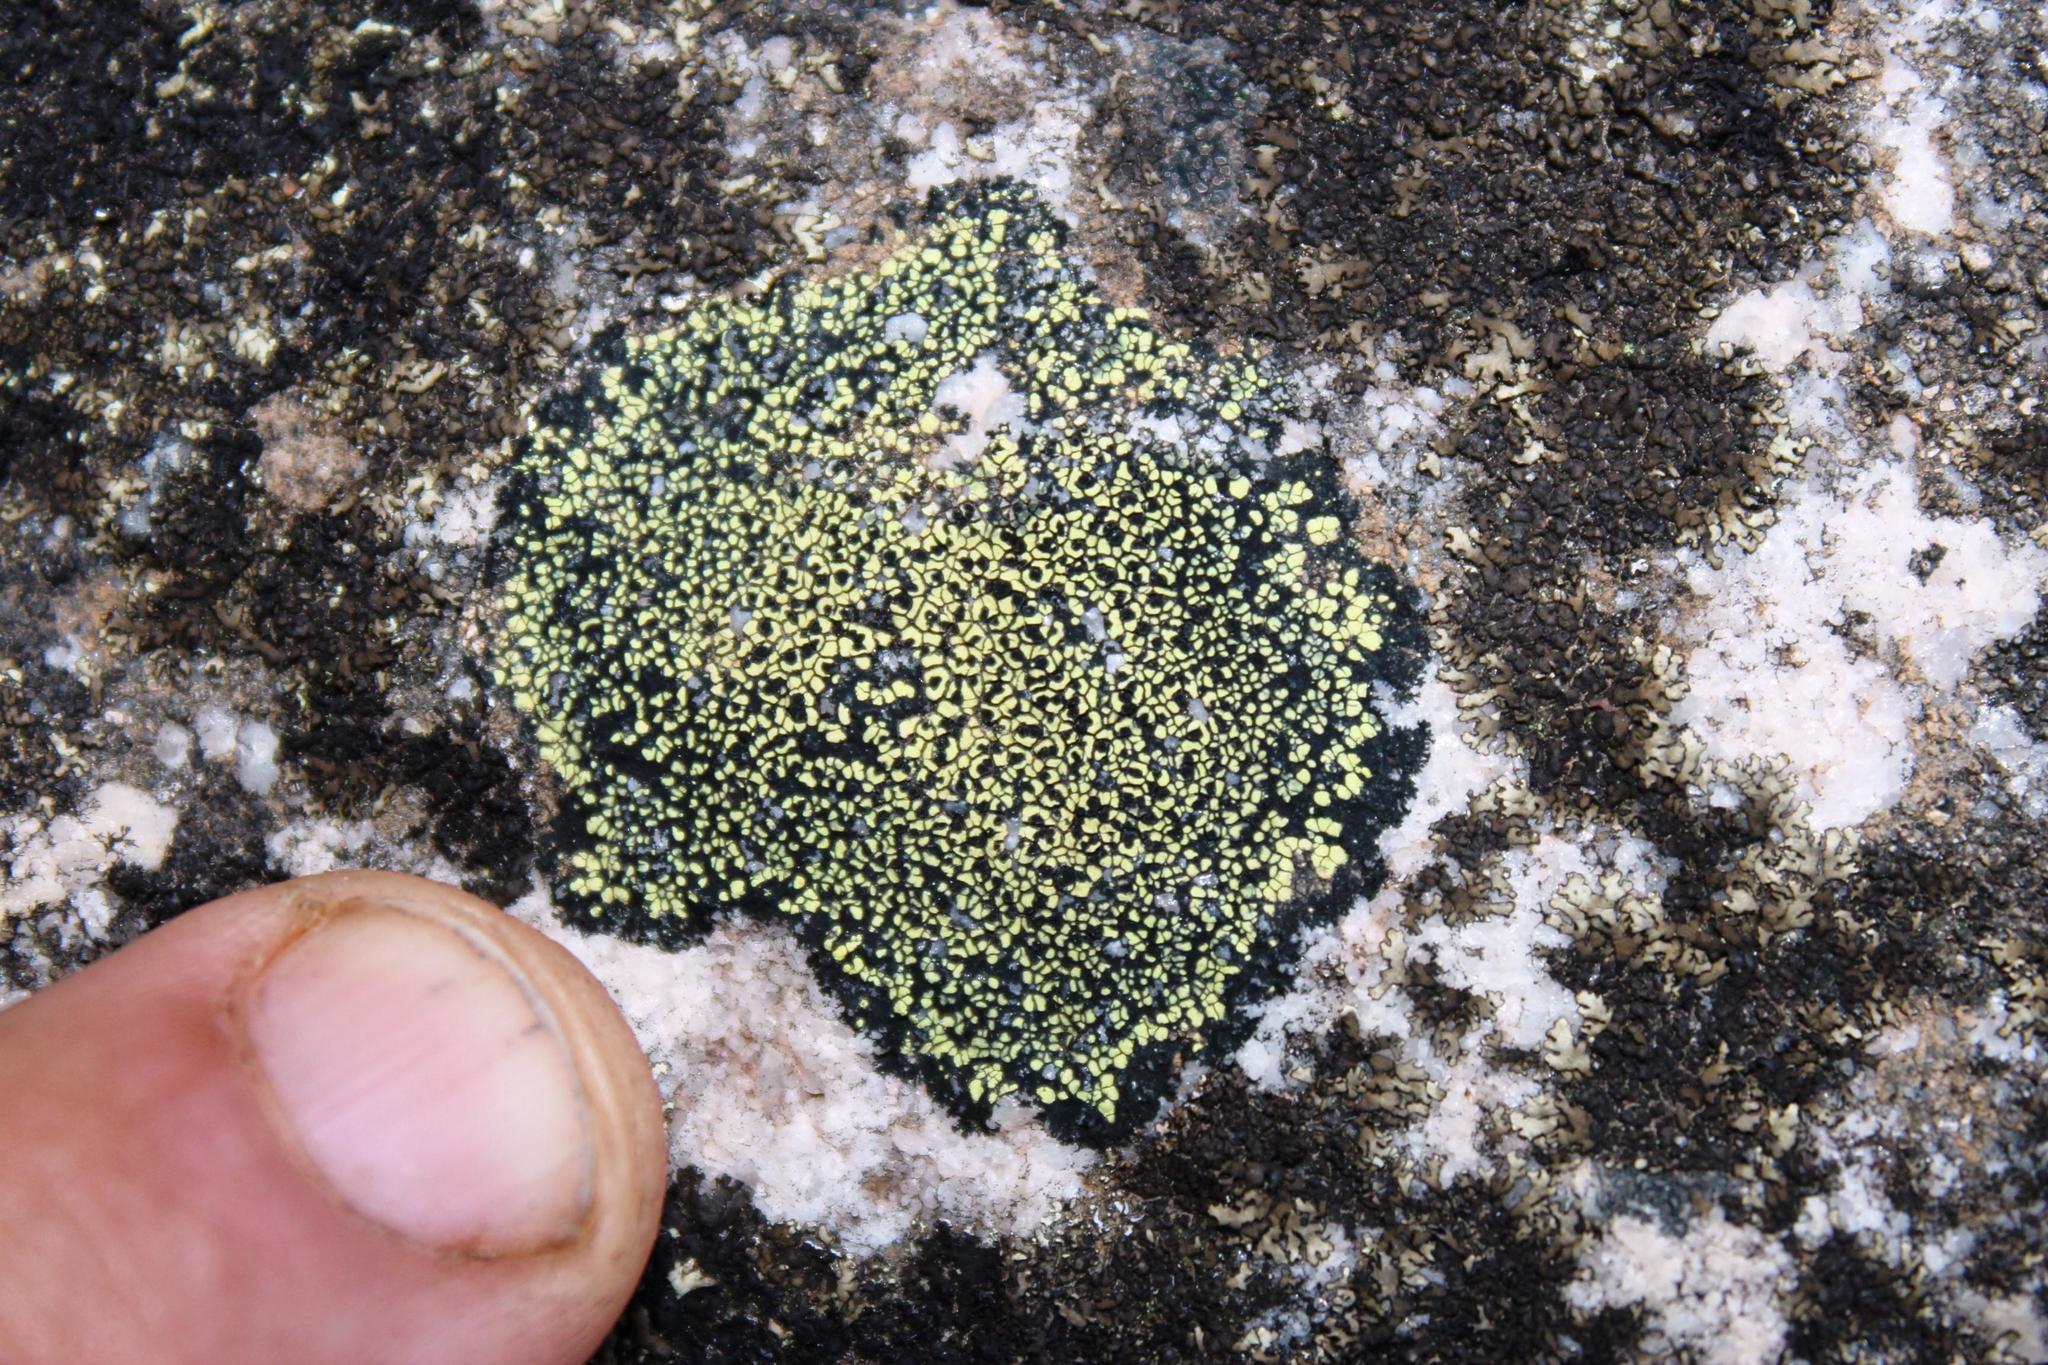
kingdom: Fungi
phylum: Ascomycota
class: Lecanoromycetes
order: Rhizocarpales
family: Rhizocarpaceae
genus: Rhizocarpon
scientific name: Rhizocarpon lecanorinum
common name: Crescent map lichen
